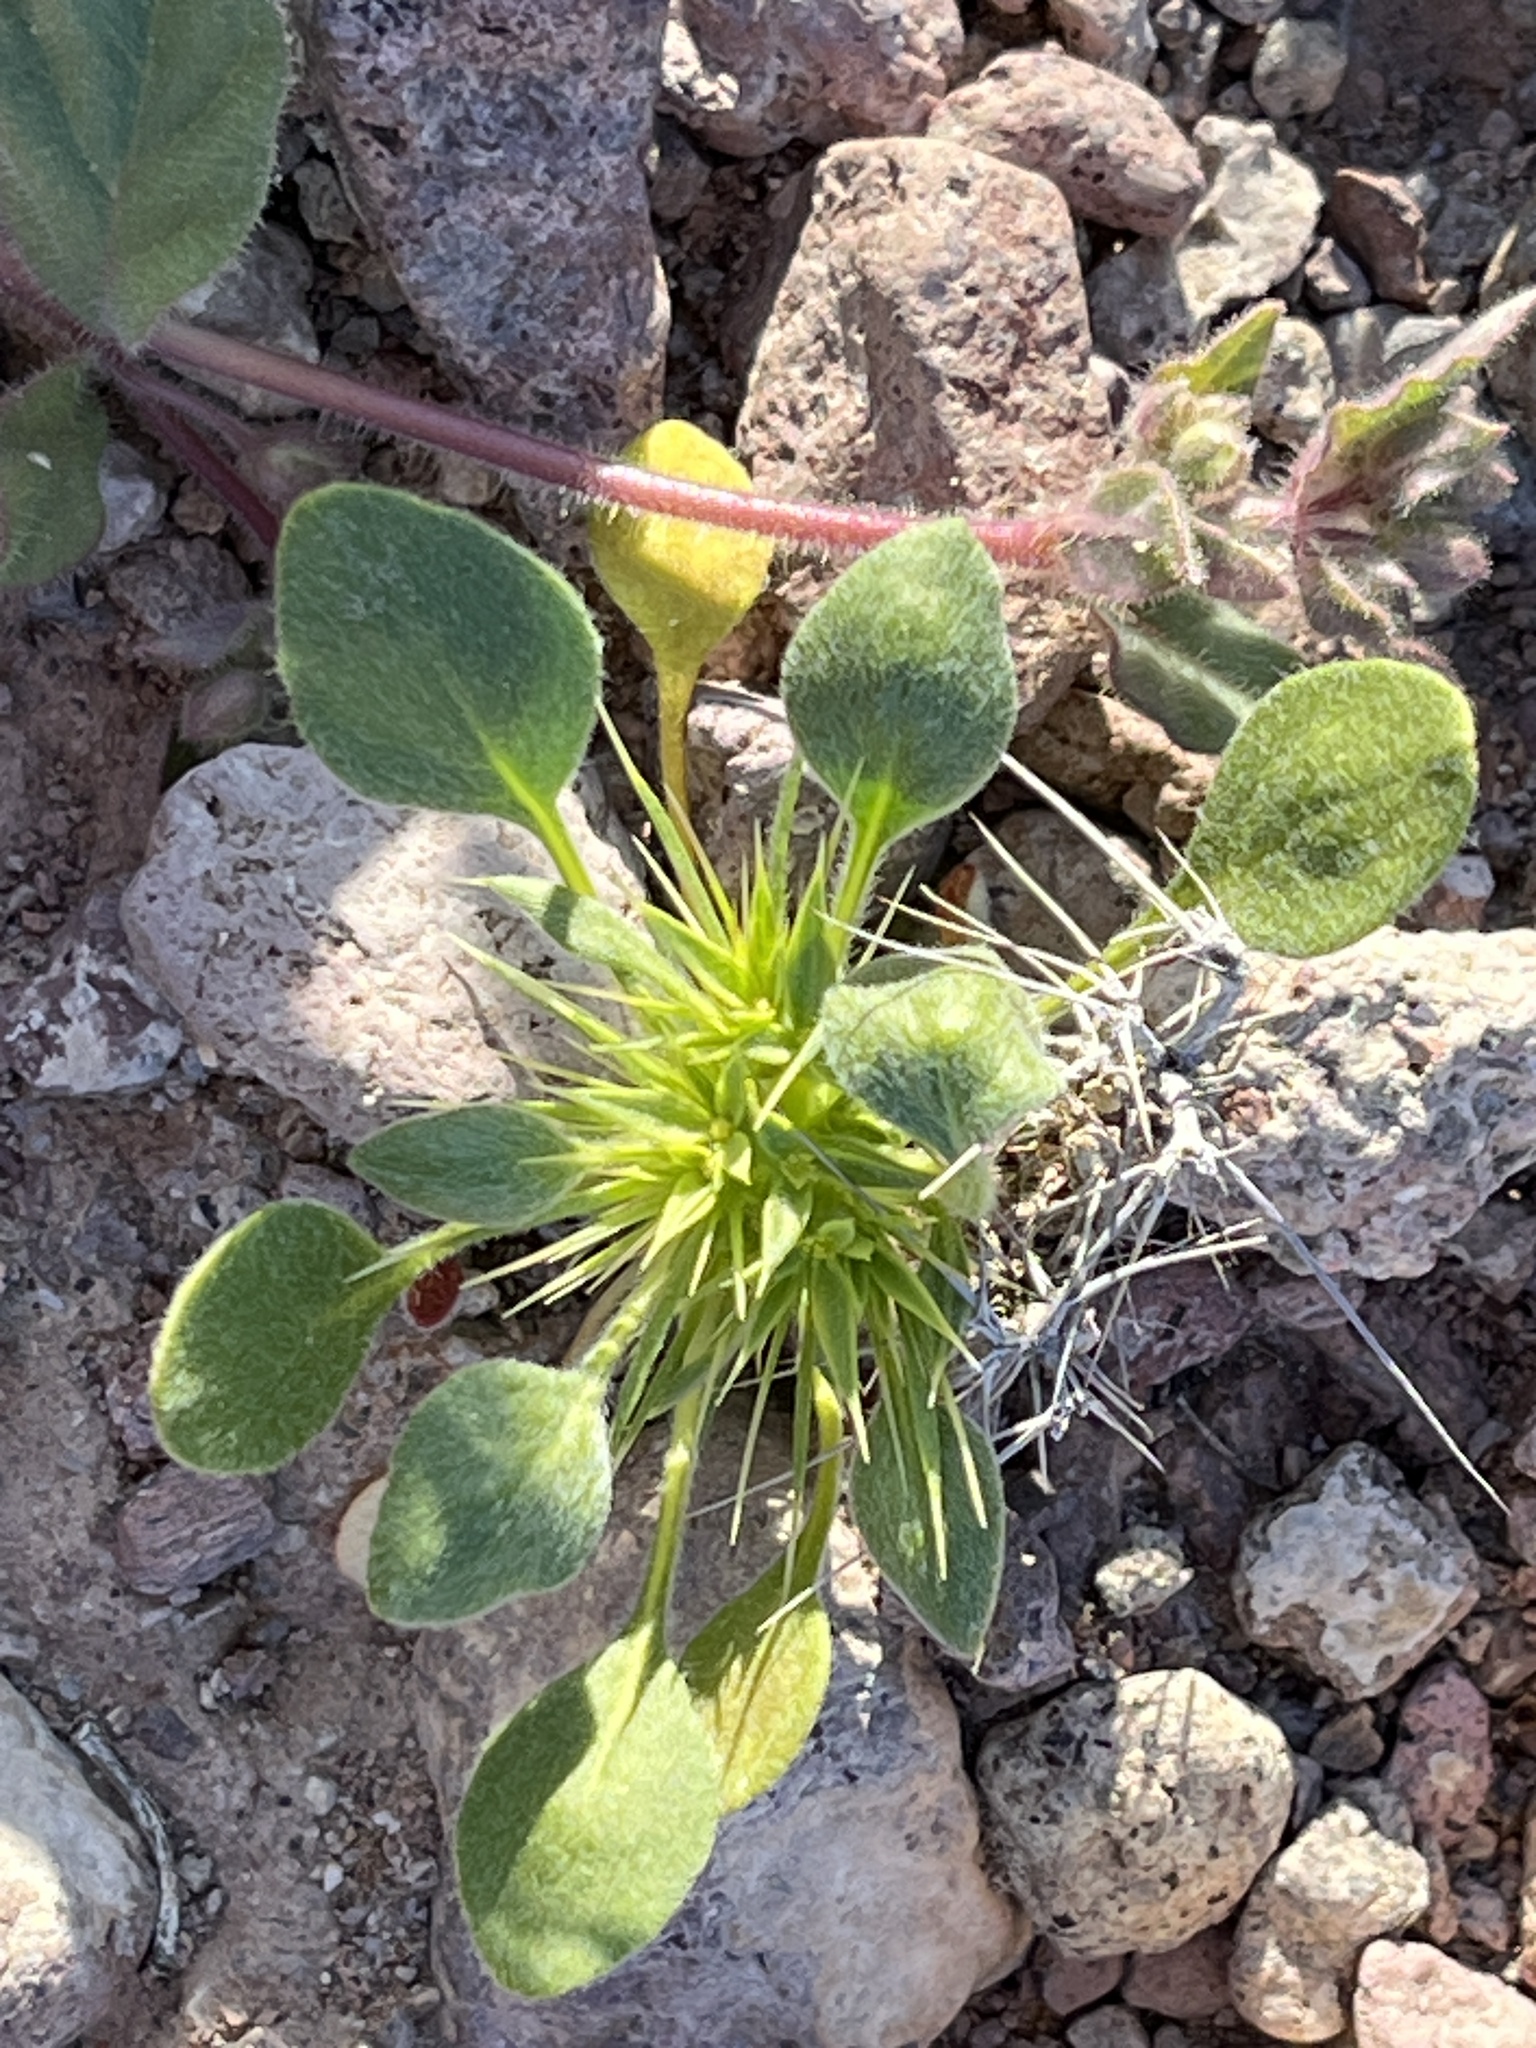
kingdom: Plantae
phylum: Tracheophyta
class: Magnoliopsida
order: Caryophyllales
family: Polygonaceae
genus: Chorizanthe
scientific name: Chorizanthe rigida
